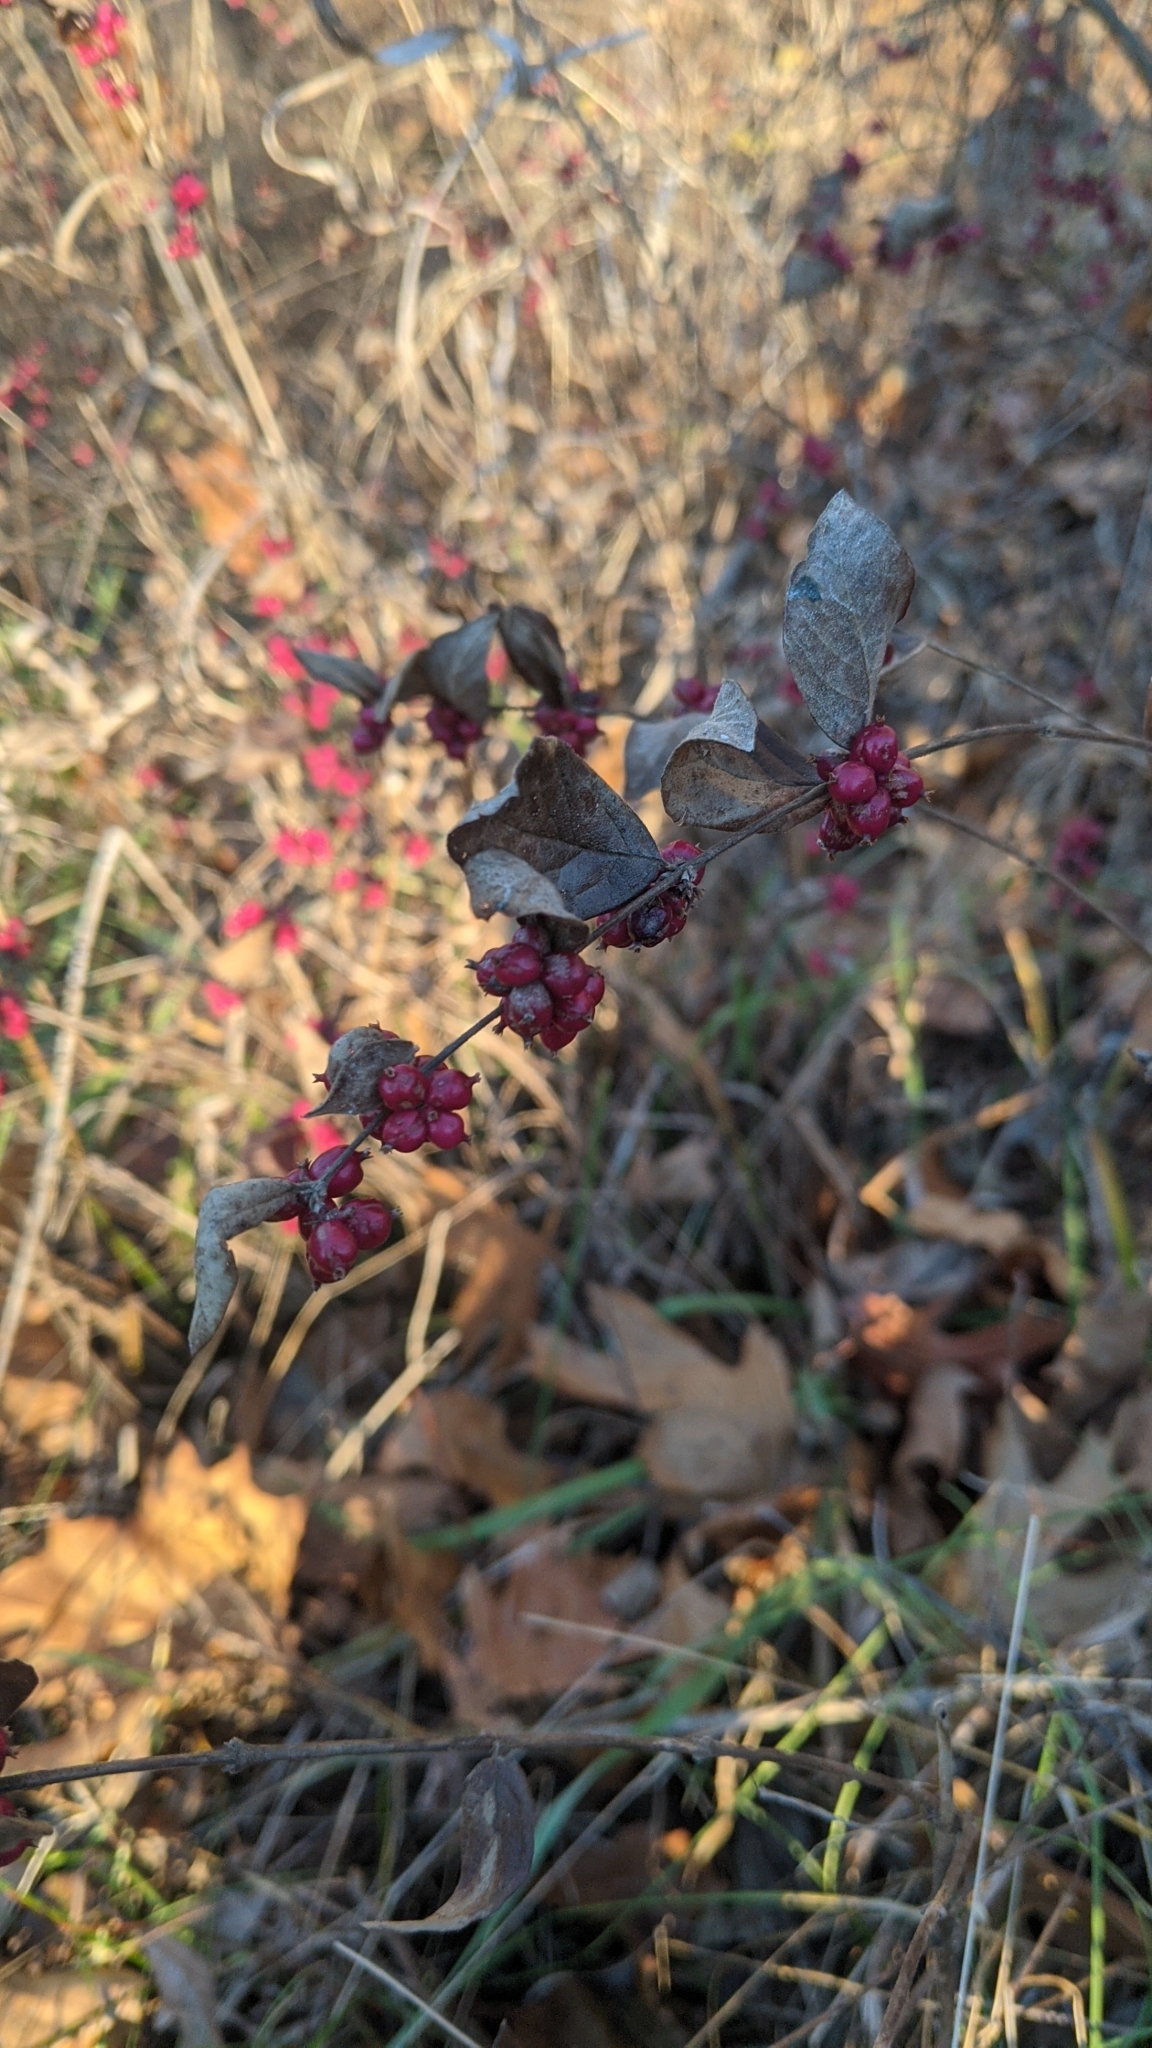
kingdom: Plantae
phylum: Tracheophyta
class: Magnoliopsida
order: Dipsacales
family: Caprifoliaceae
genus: Symphoricarpos
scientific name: Symphoricarpos orbiculatus
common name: Coralberry
